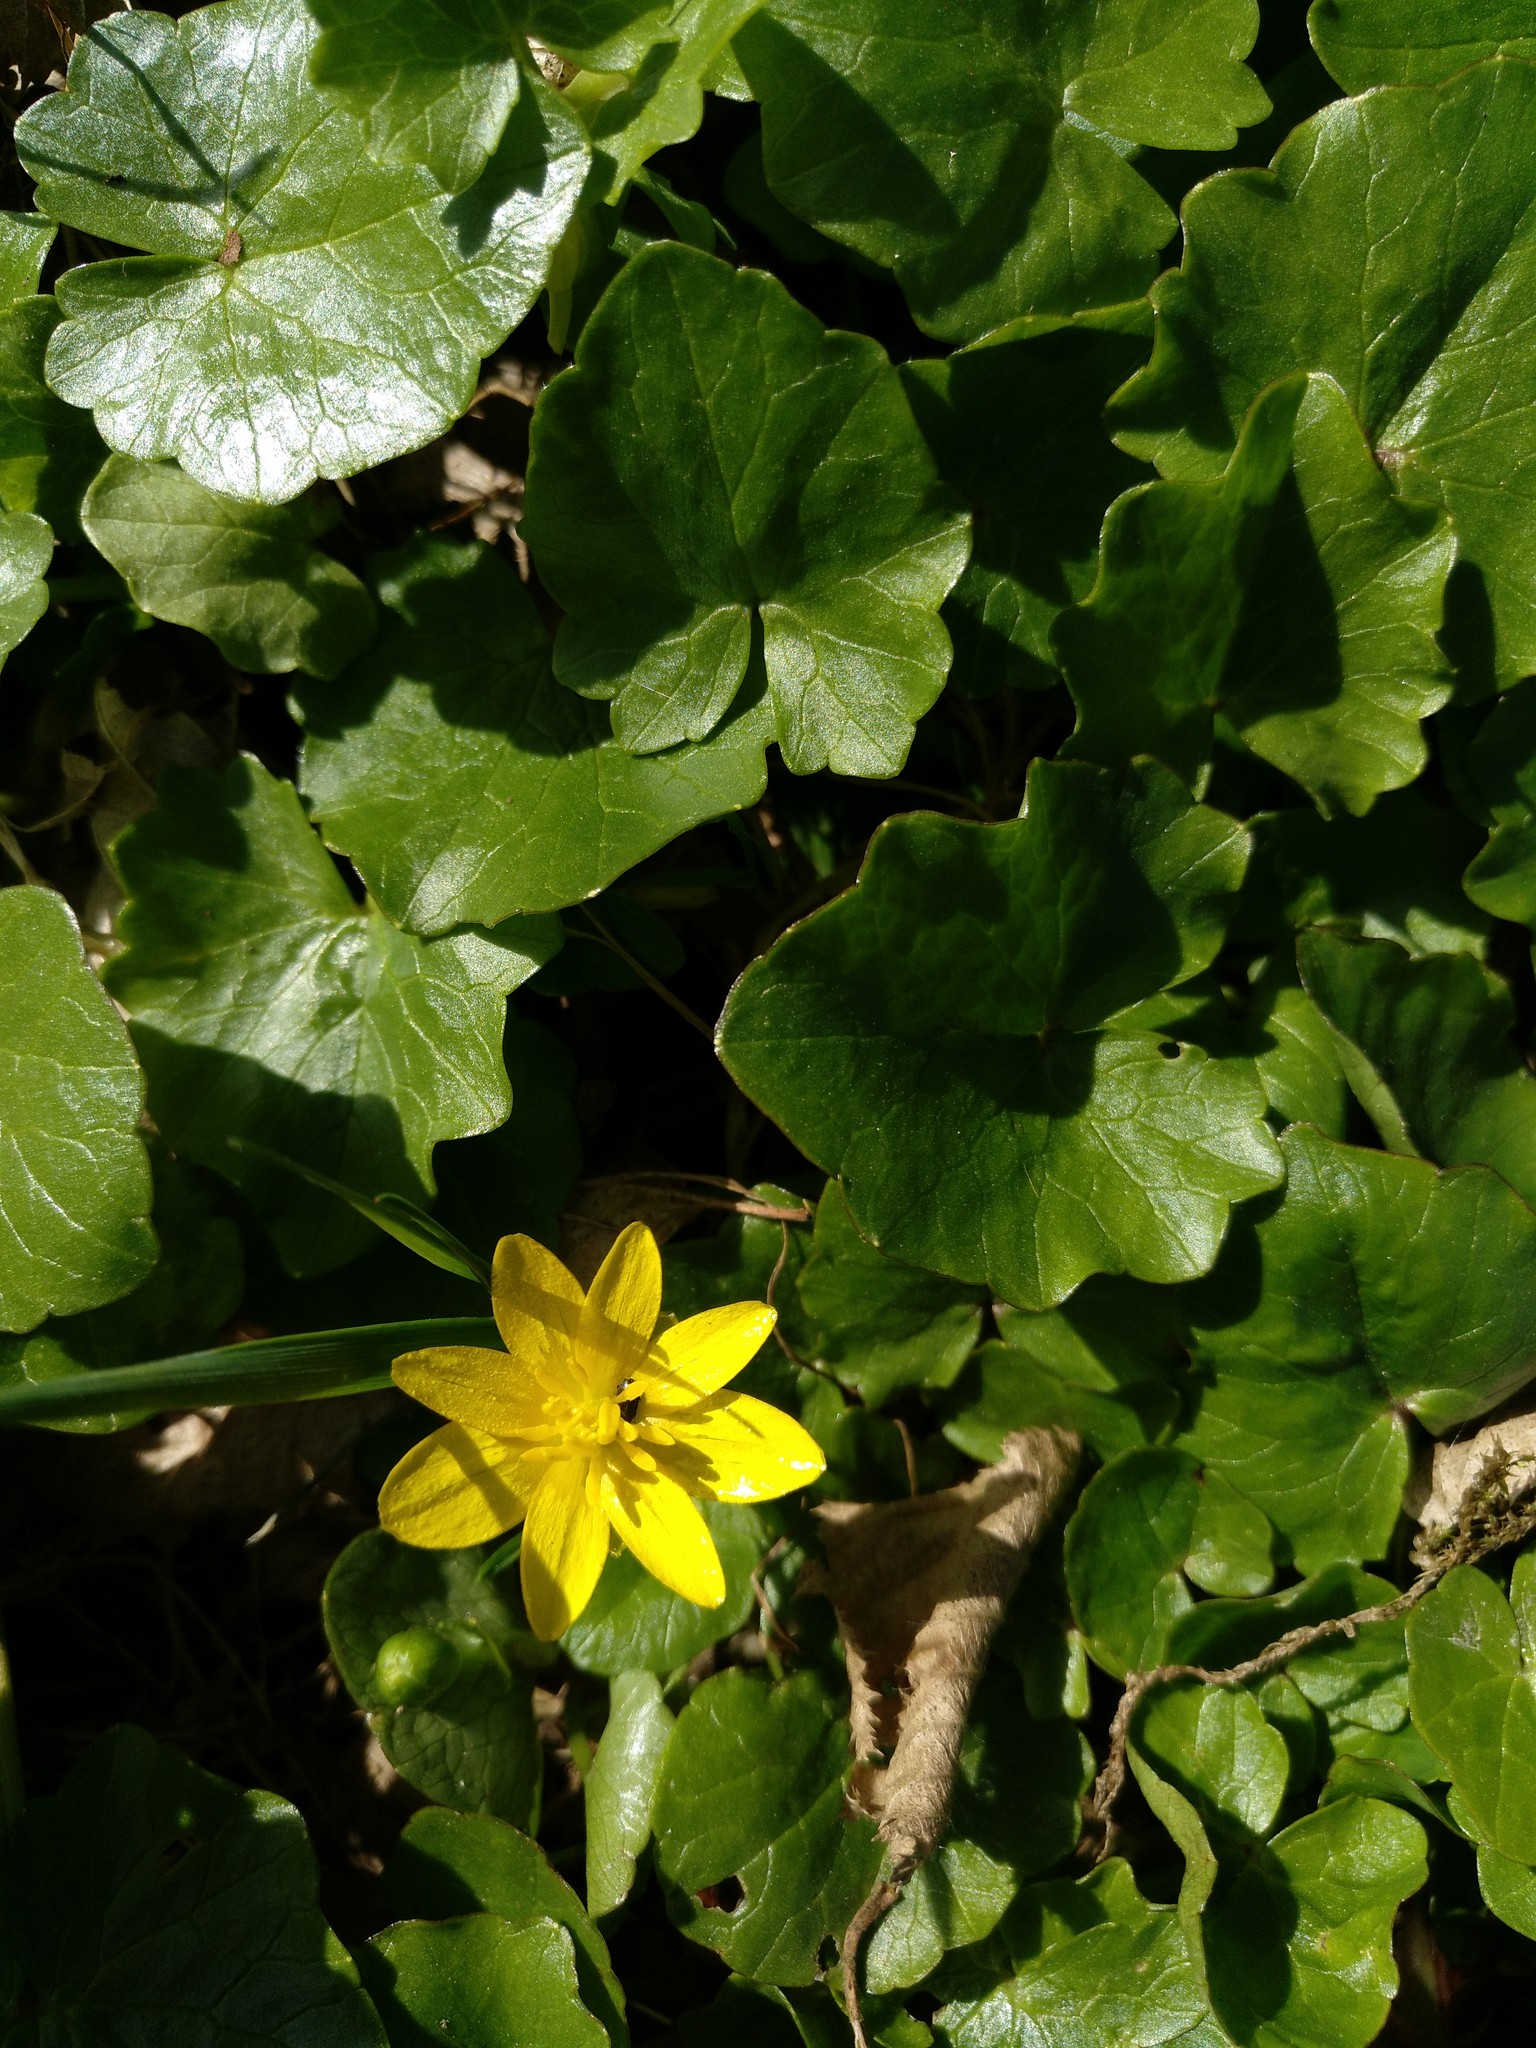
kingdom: Plantae
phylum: Tracheophyta
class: Magnoliopsida
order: Ranunculales
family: Ranunculaceae
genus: Ficaria
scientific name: Ficaria verna
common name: Lesser celandine
